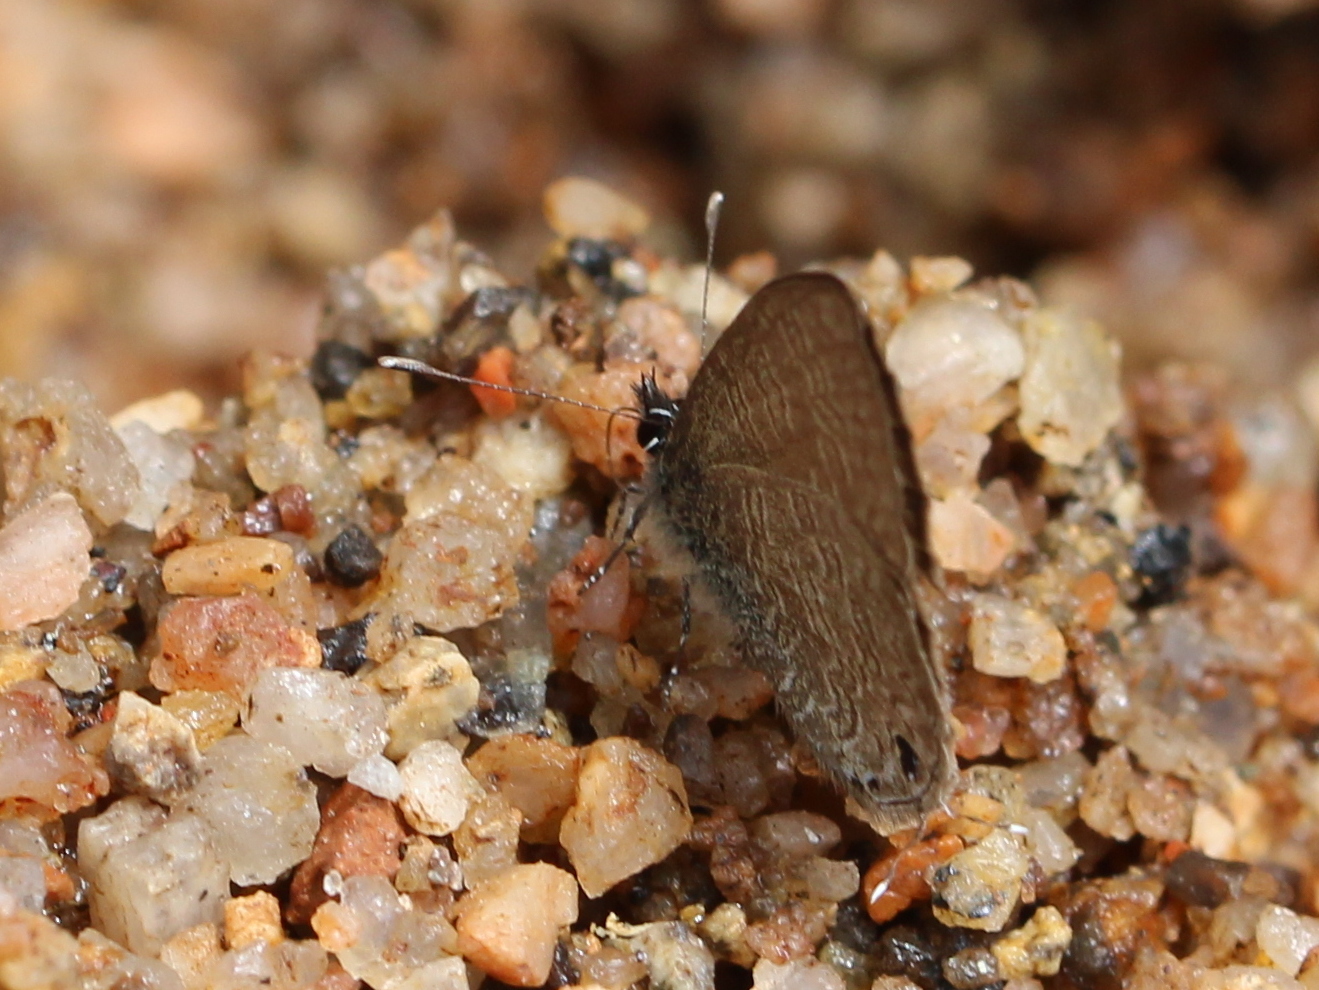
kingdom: Animalia
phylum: Arthropoda
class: Insecta
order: Lepidoptera
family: Lycaenidae
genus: Prosotas
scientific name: Prosotas nora
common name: Common line blue
